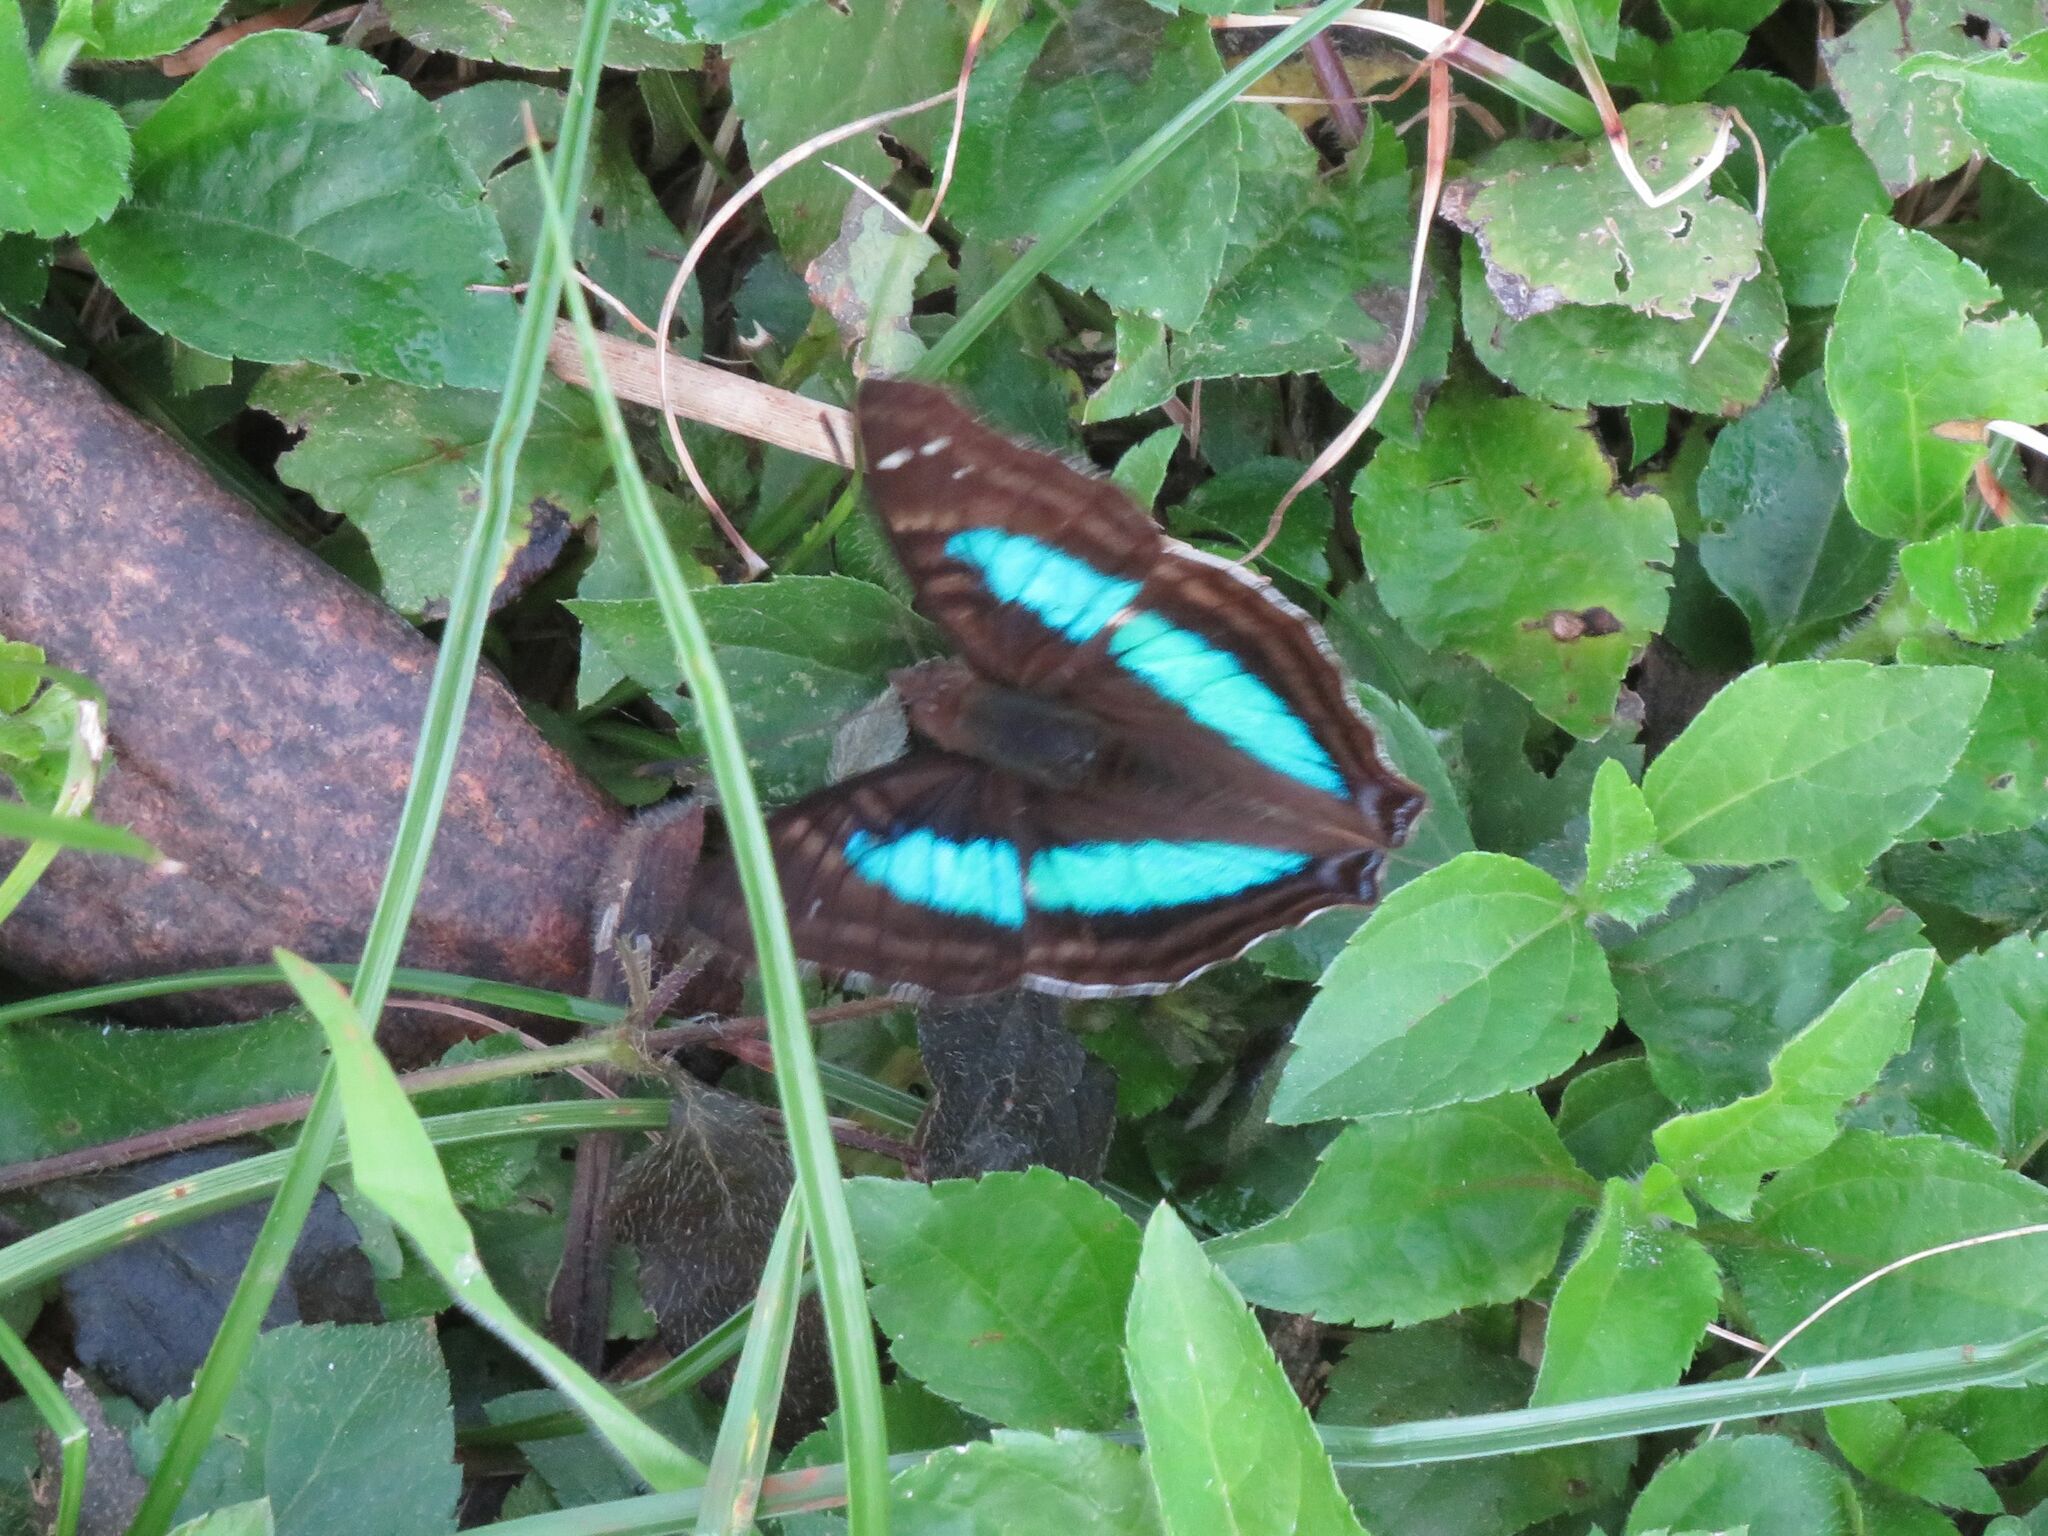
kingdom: Animalia
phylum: Arthropoda
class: Insecta
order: Lepidoptera
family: Nymphalidae
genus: Doxocopa
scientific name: Doxocopa laurentia
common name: Turquoise emperor
